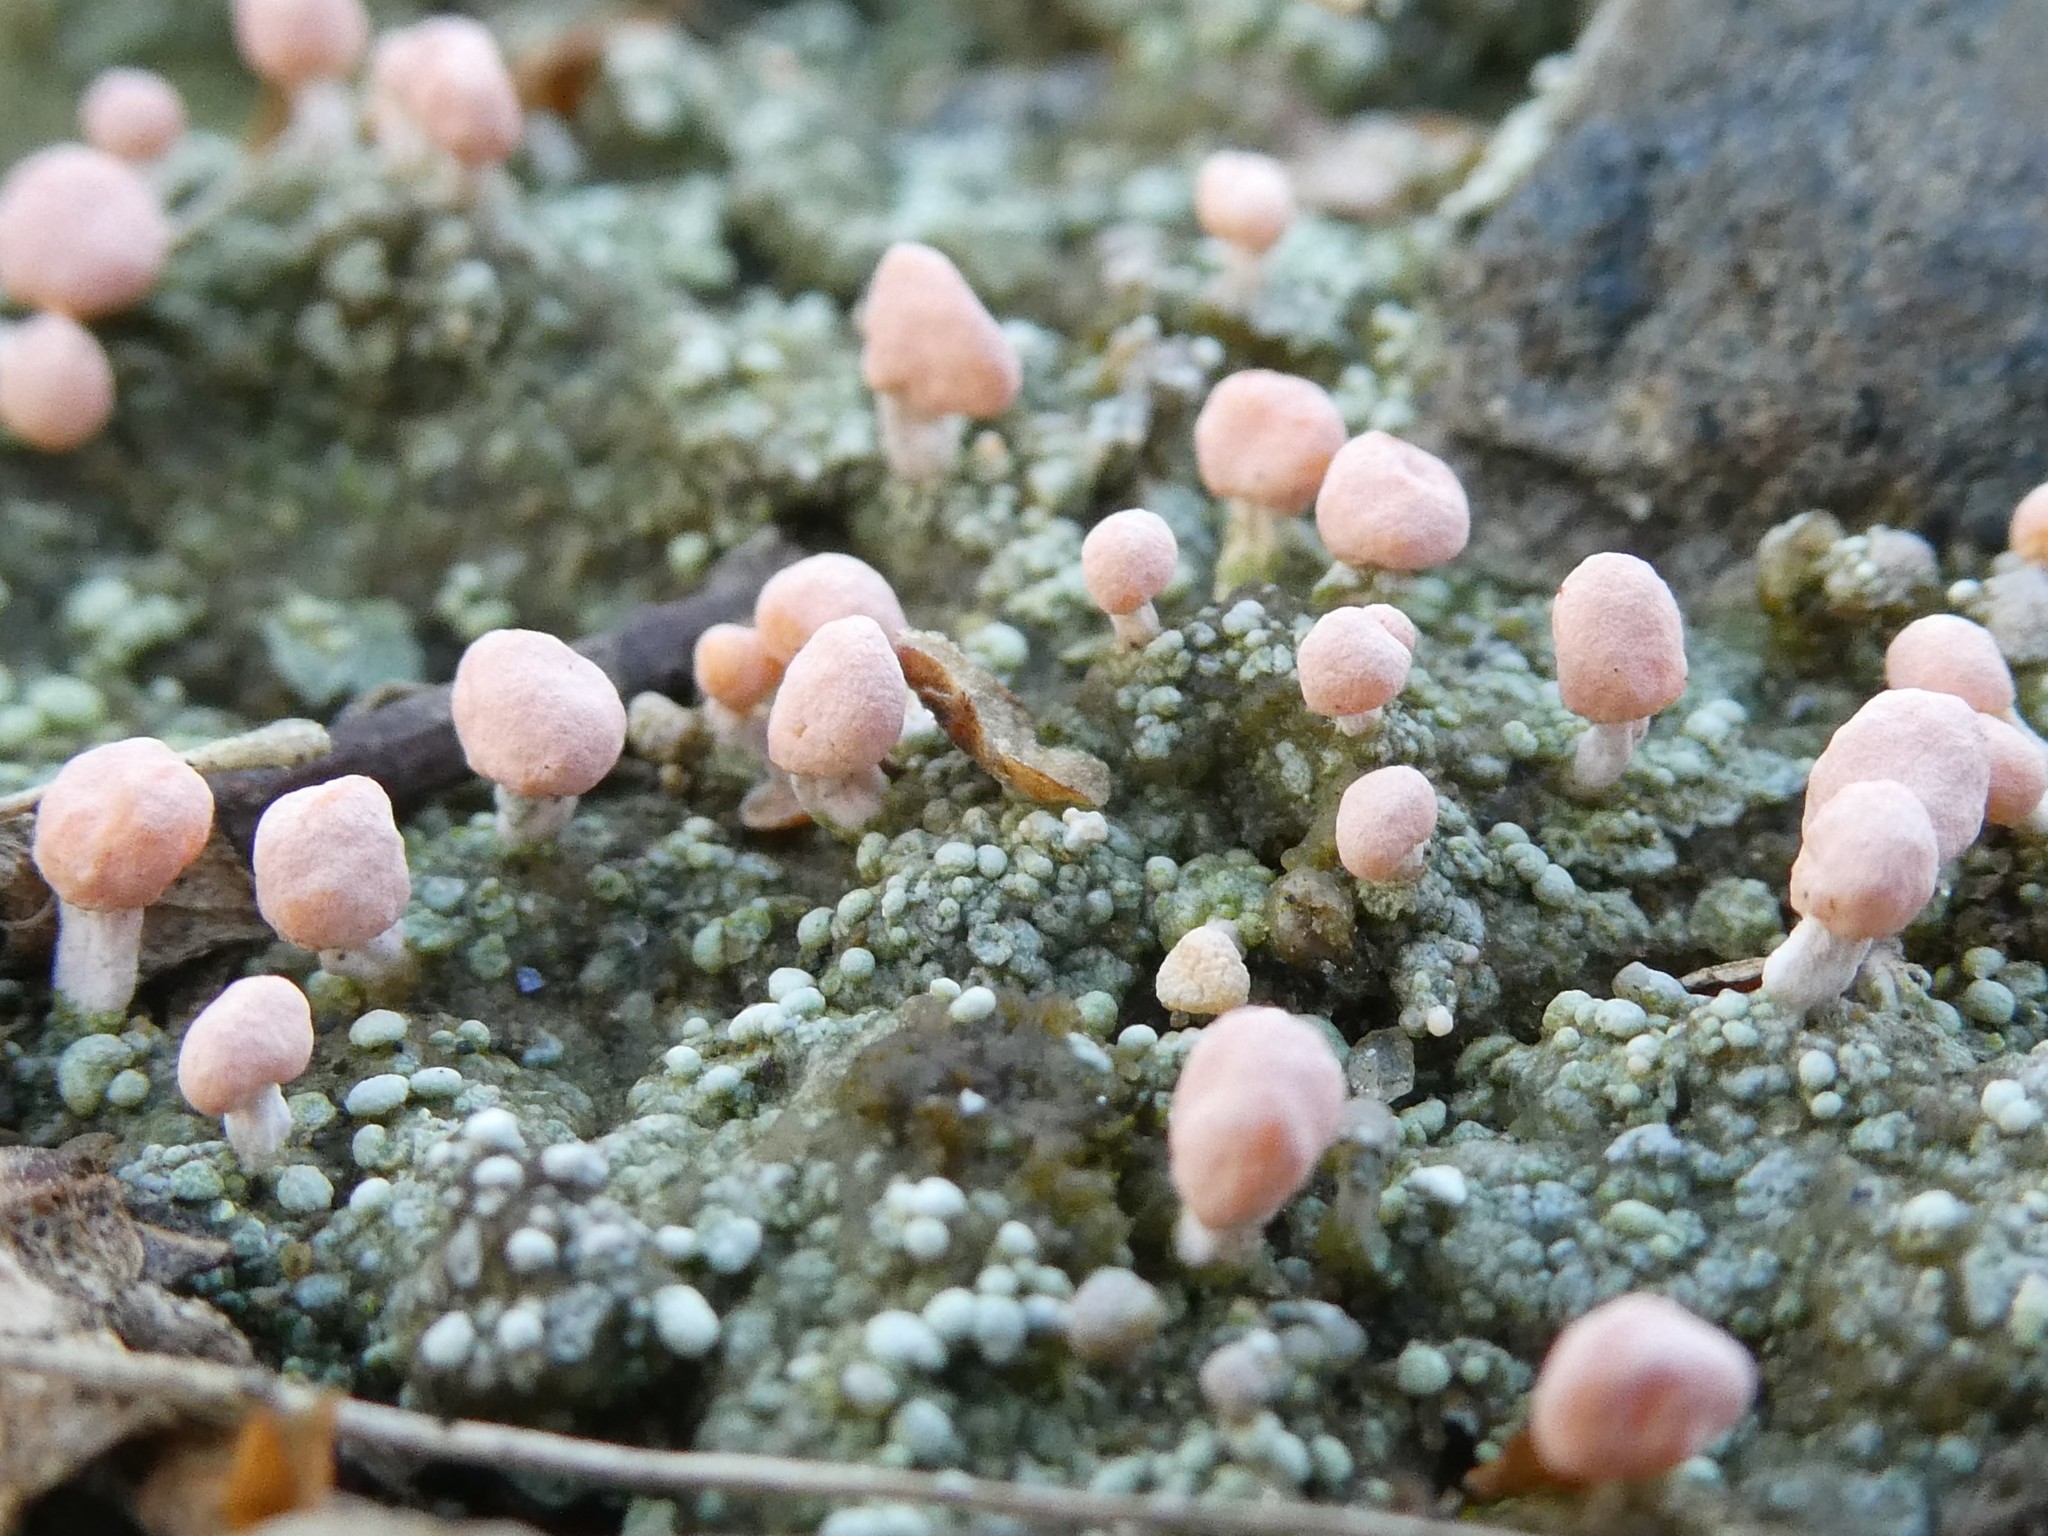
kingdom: Fungi
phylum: Ascomycota
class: Lecanoromycetes
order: Pertusariales
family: Icmadophilaceae
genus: Dibaeis
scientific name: Dibaeis baeomyces
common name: Pink earth lichen
